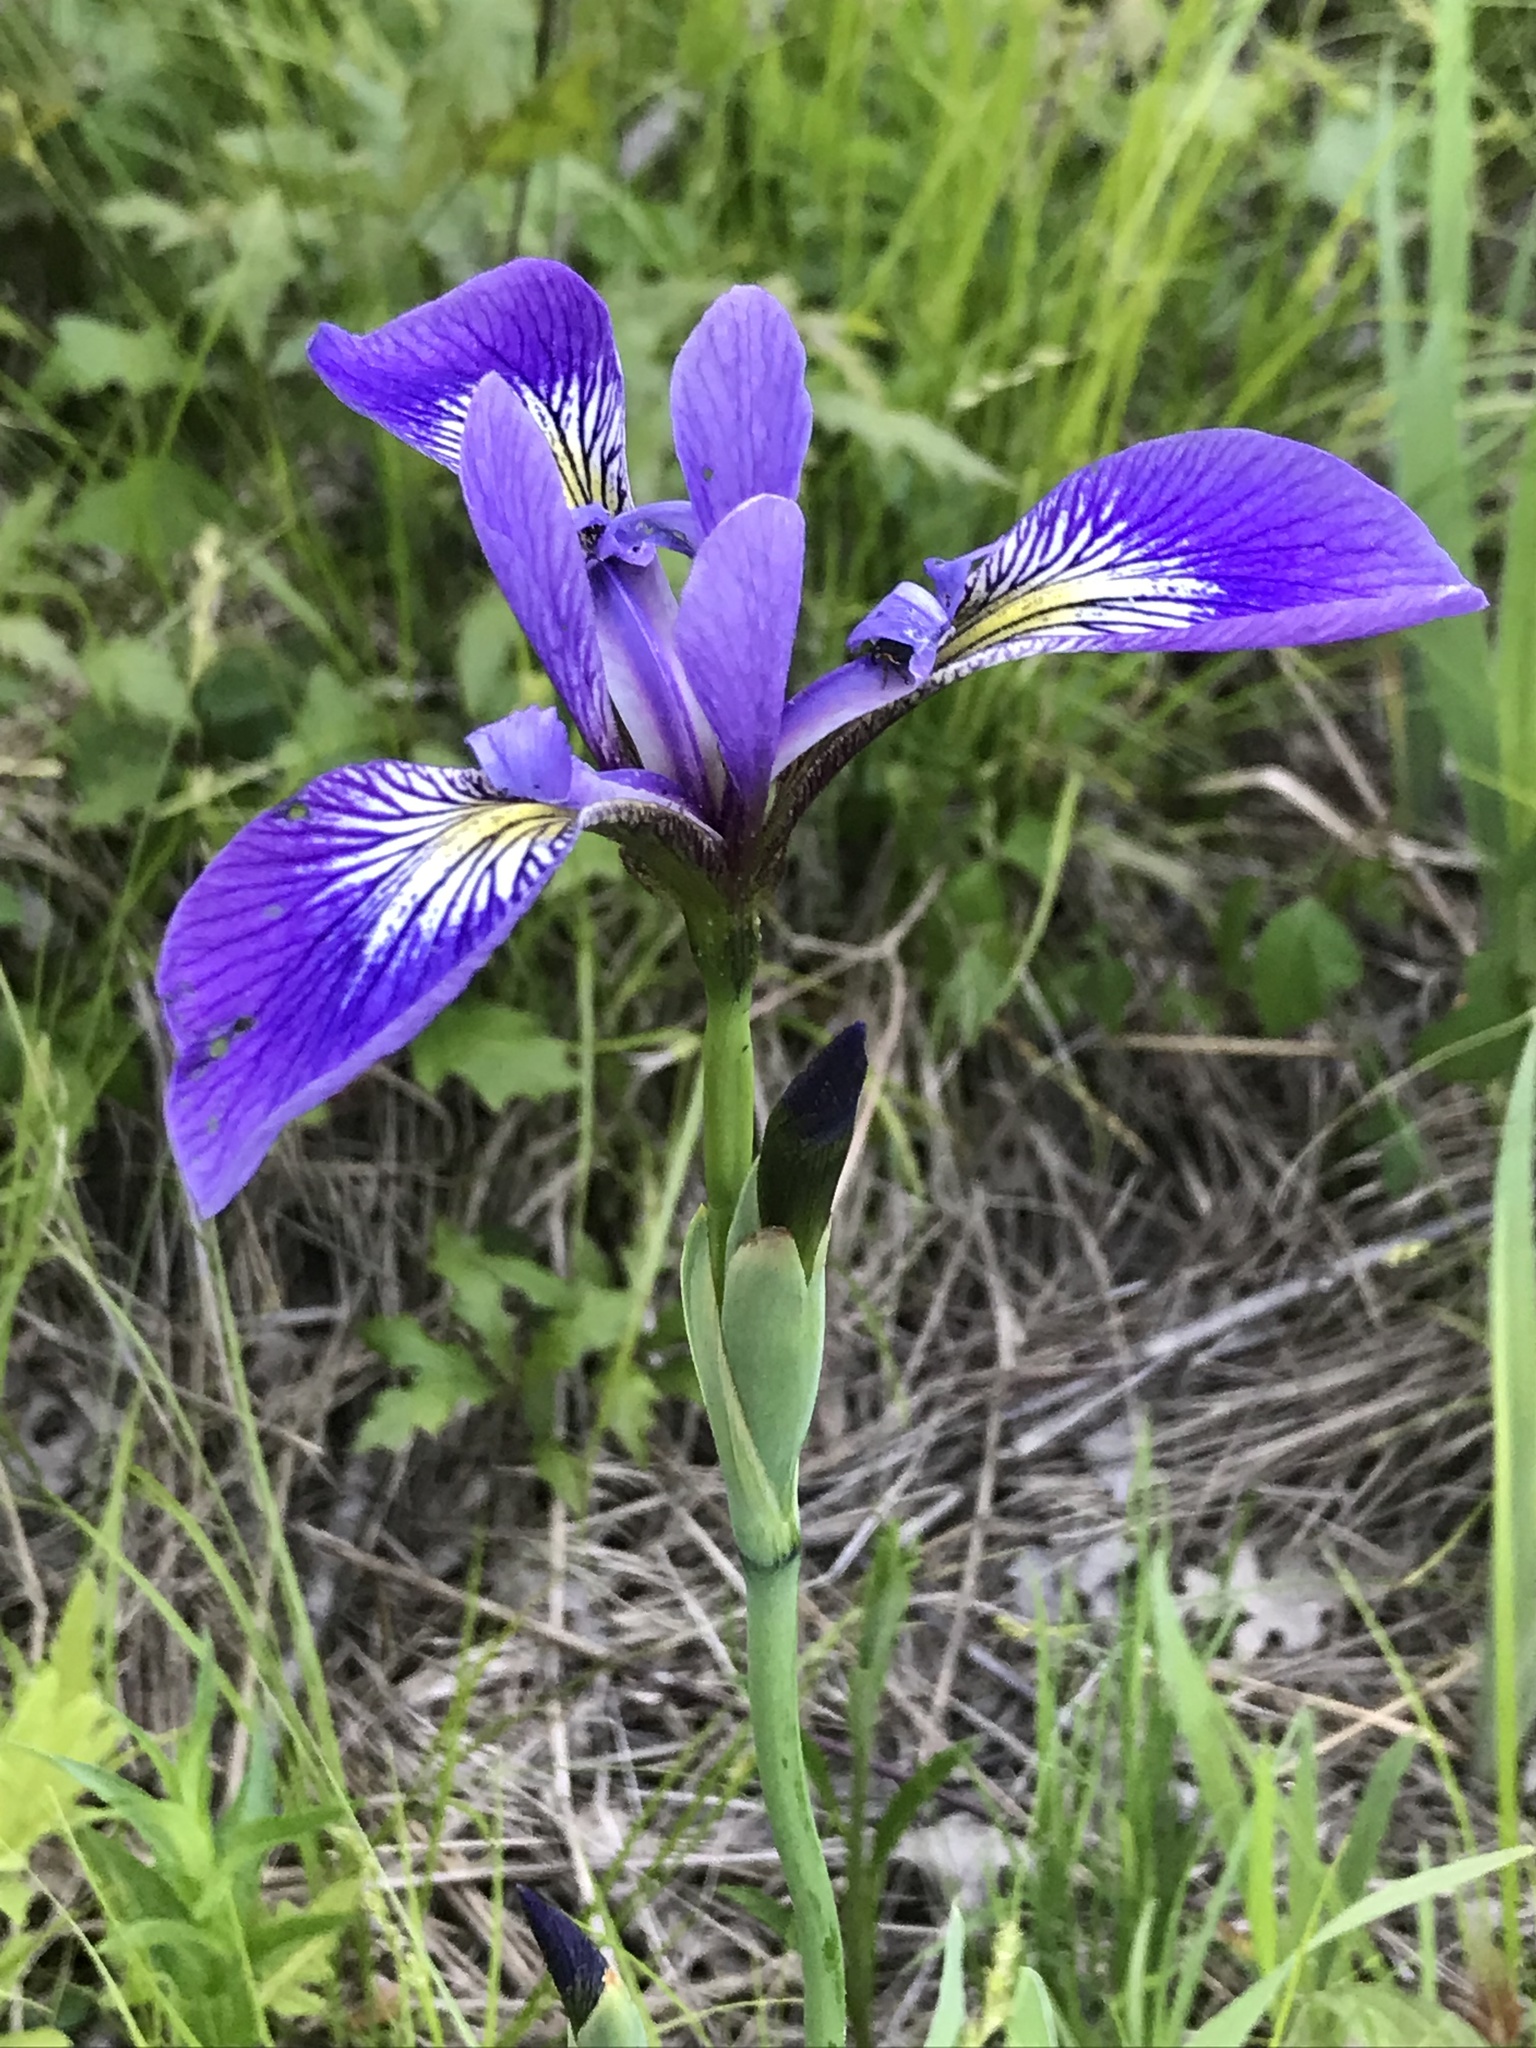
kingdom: Plantae
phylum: Tracheophyta
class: Liliopsida
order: Asparagales
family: Iridaceae
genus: Iris
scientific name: Iris versicolor
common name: Purple iris
